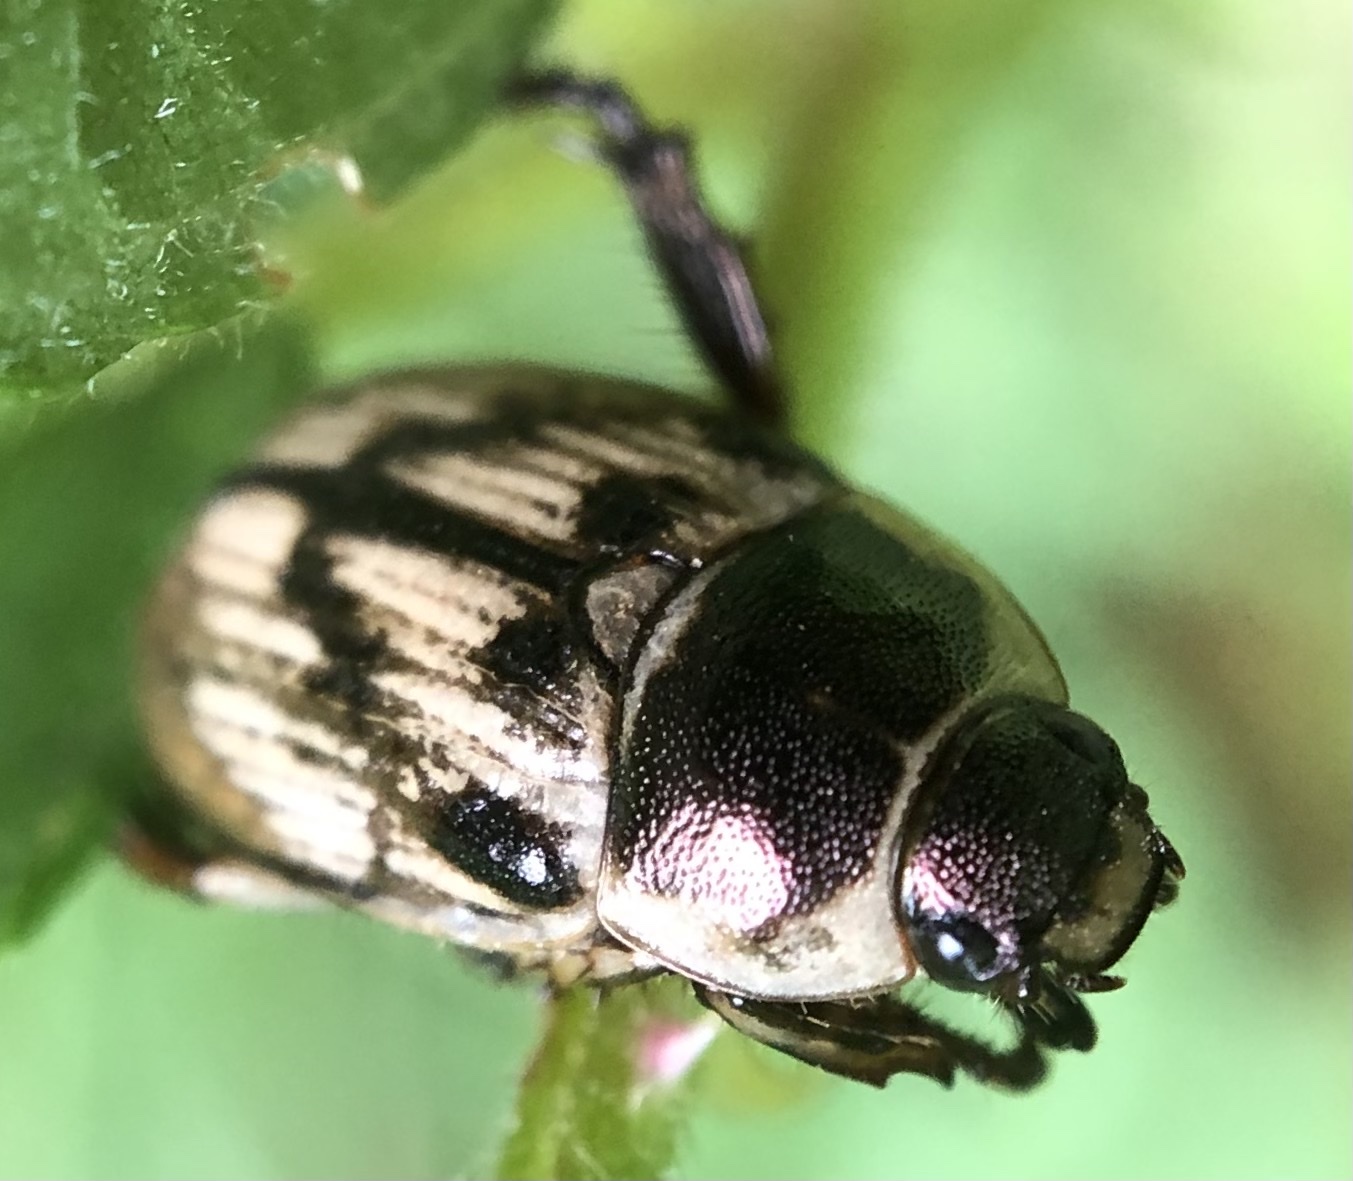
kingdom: Animalia
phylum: Arthropoda
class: Insecta
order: Coleoptera
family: Scarabaeidae
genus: Exomala
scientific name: Exomala orientalis
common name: Oriental beetle
